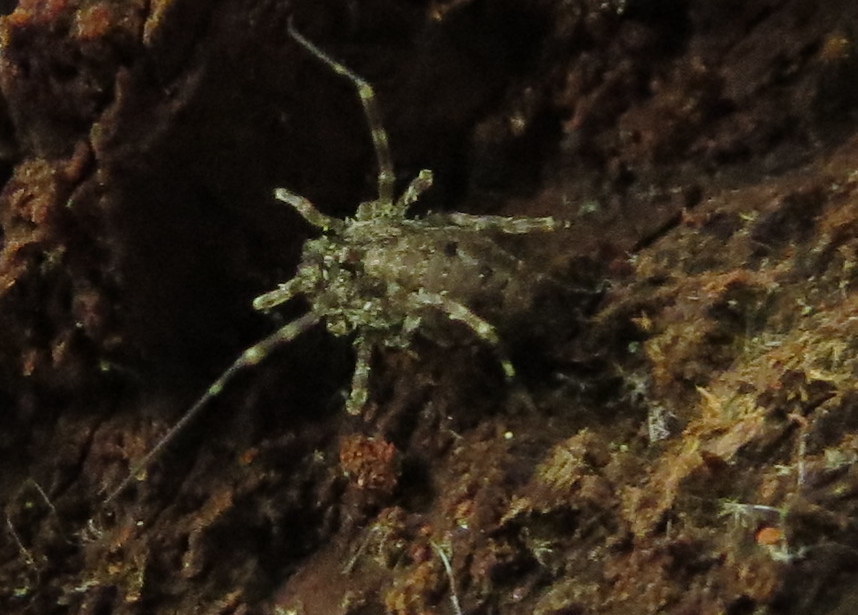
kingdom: Animalia
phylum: Arthropoda
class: Arachnida
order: Opiliones
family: Phalangiidae
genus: Odiellus
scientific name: Odiellus pictus
